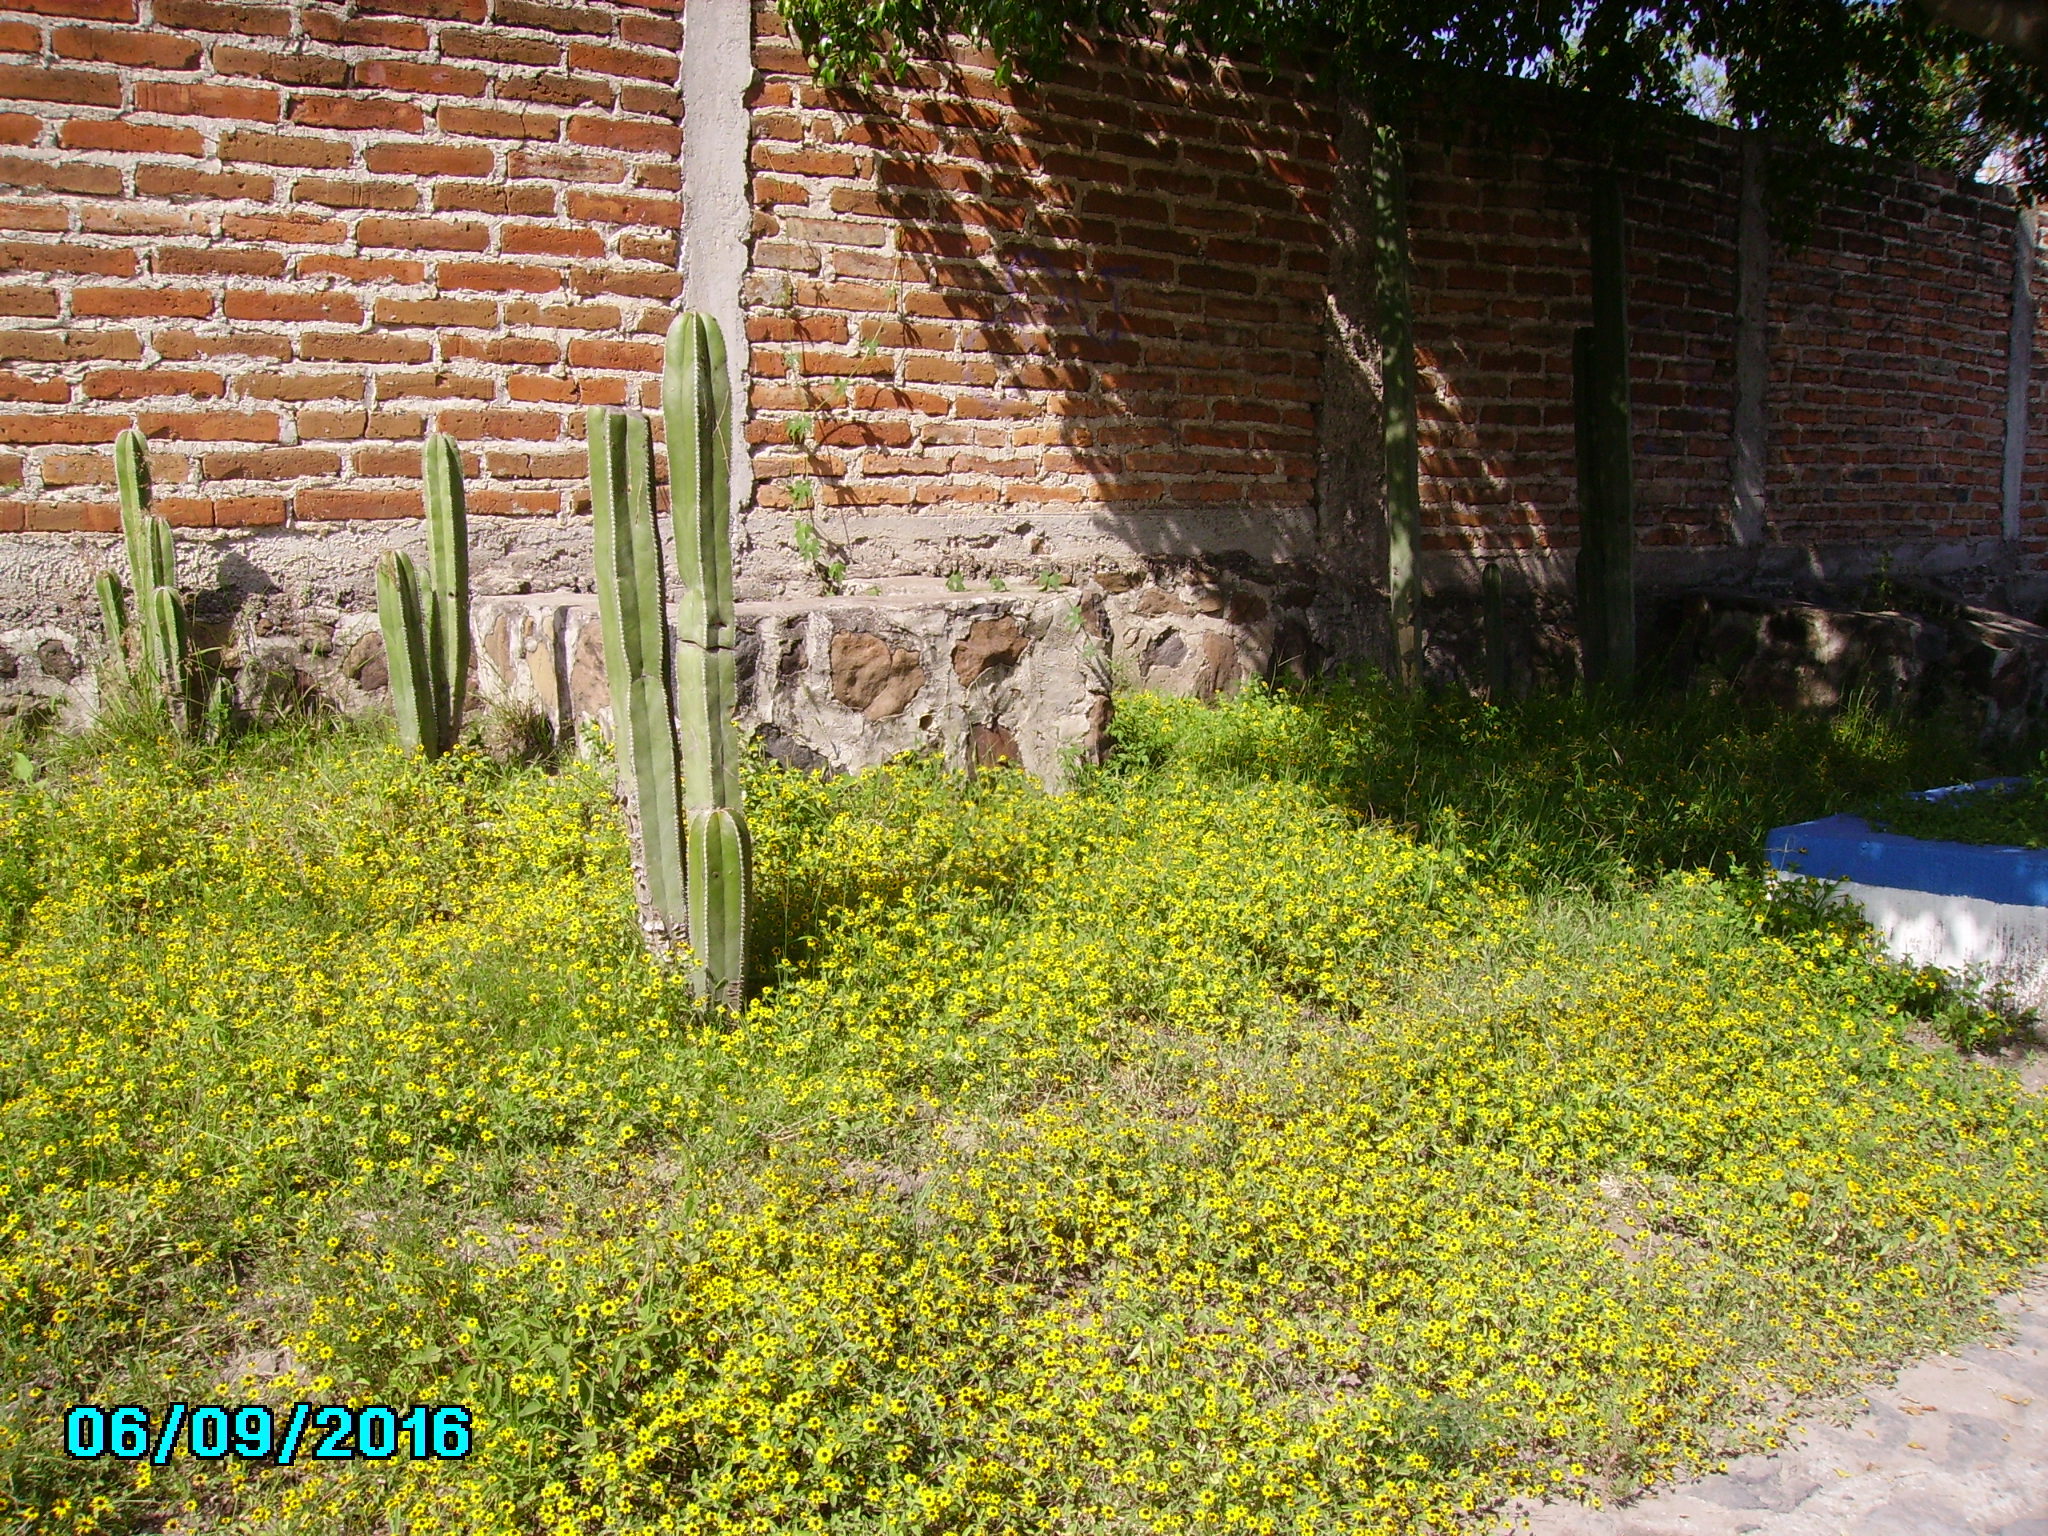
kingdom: Plantae
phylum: Tracheophyta
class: Magnoliopsida
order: Caryophyllales
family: Cactaceae
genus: Marginatocereus
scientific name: Marginatocereus marginatus
